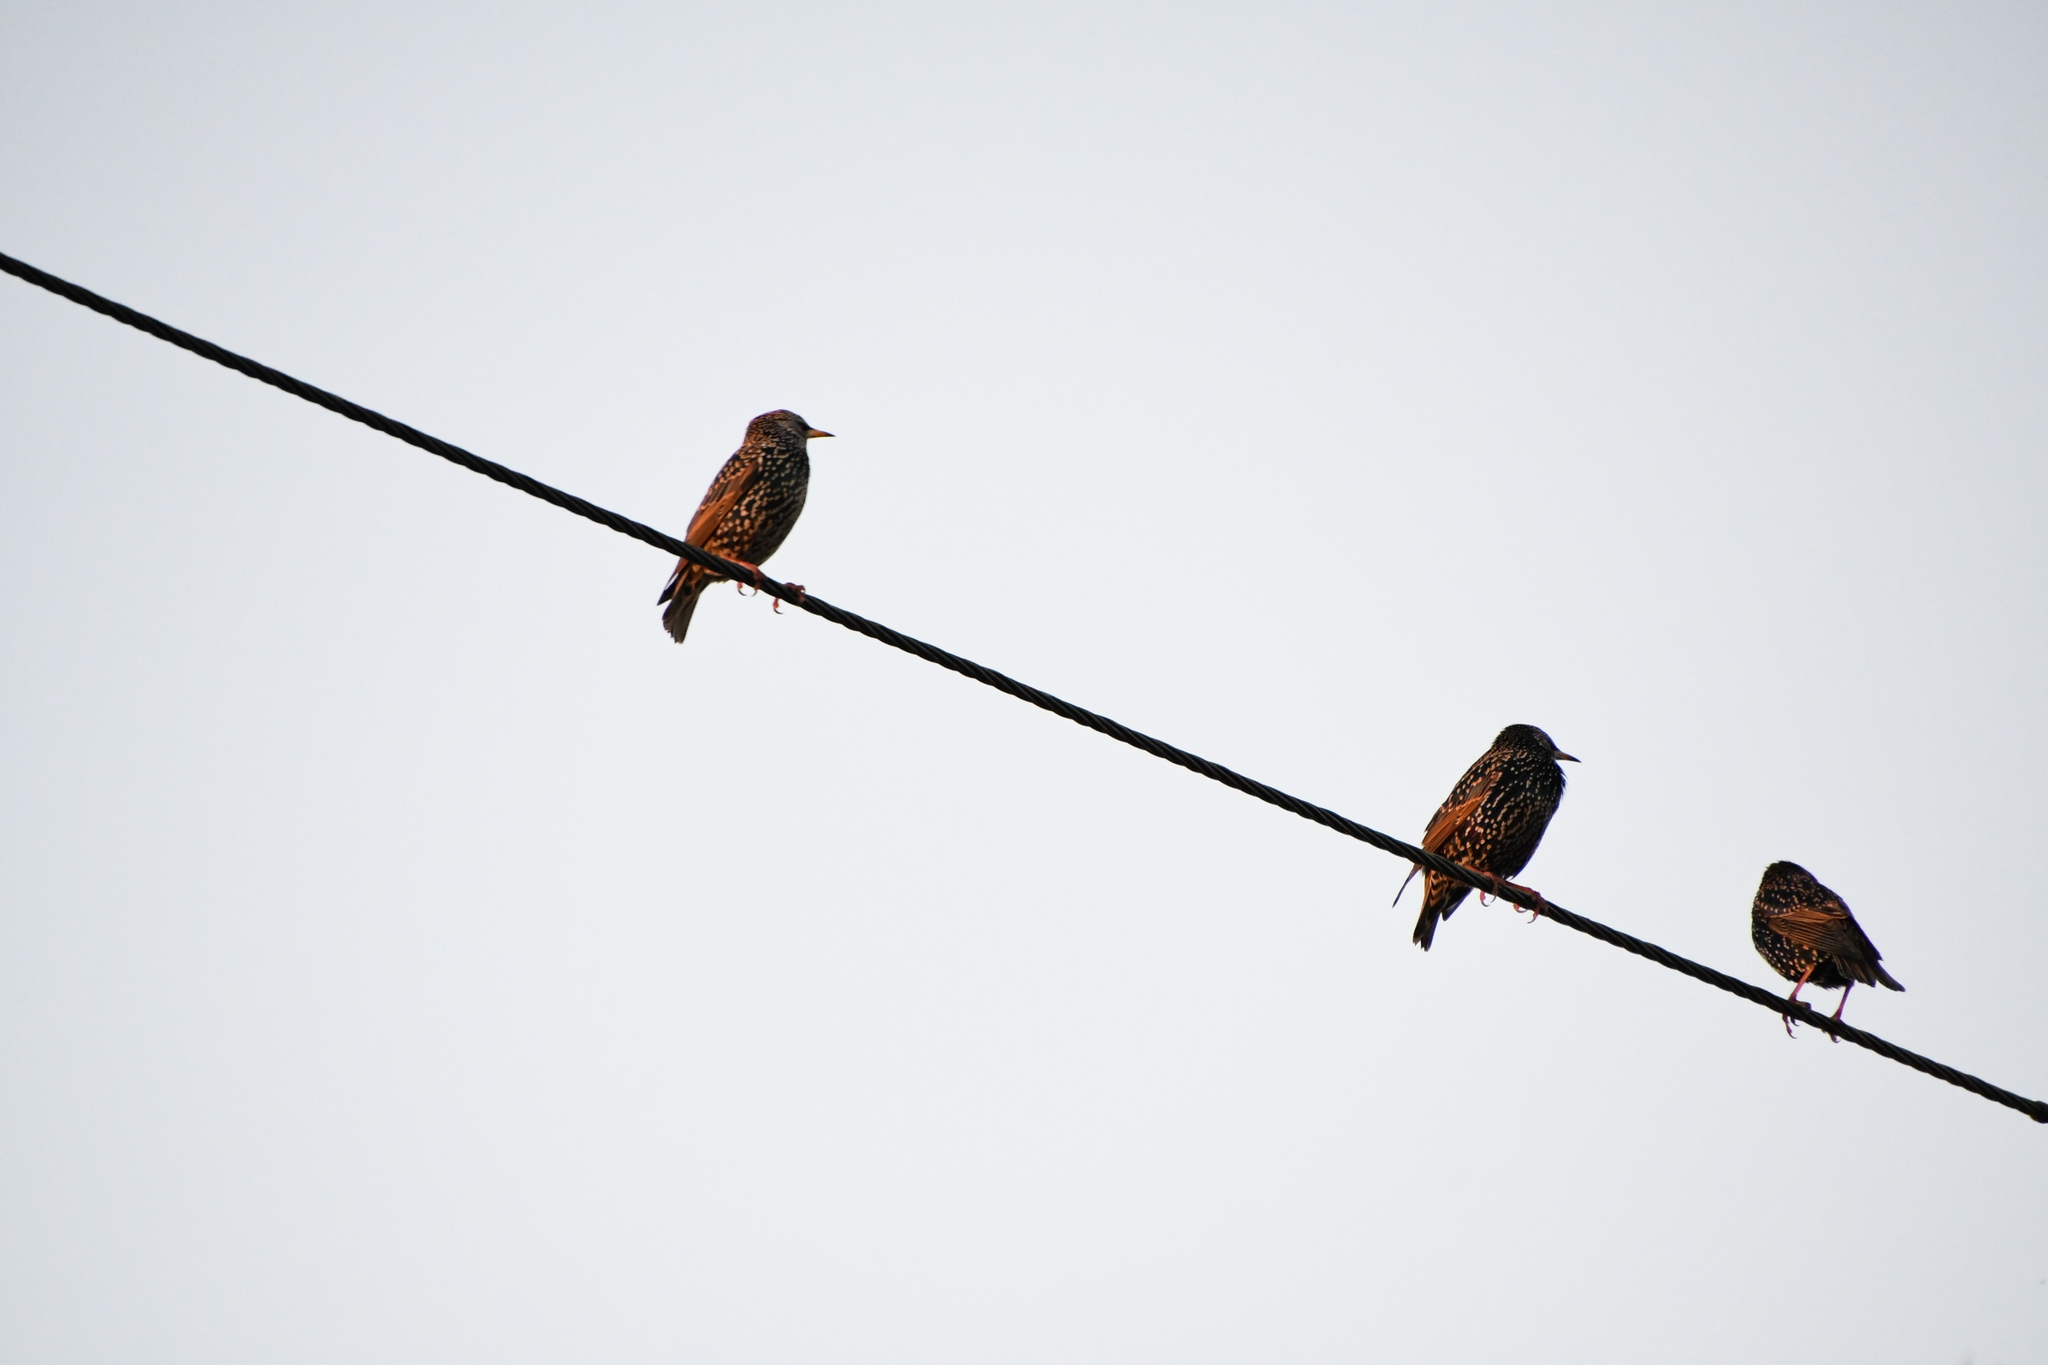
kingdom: Animalia
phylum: Chordata
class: Aves
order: Passeriformes
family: Sturnidae
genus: Sturnus
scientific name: Sturnus vulgaris
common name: Common starling
